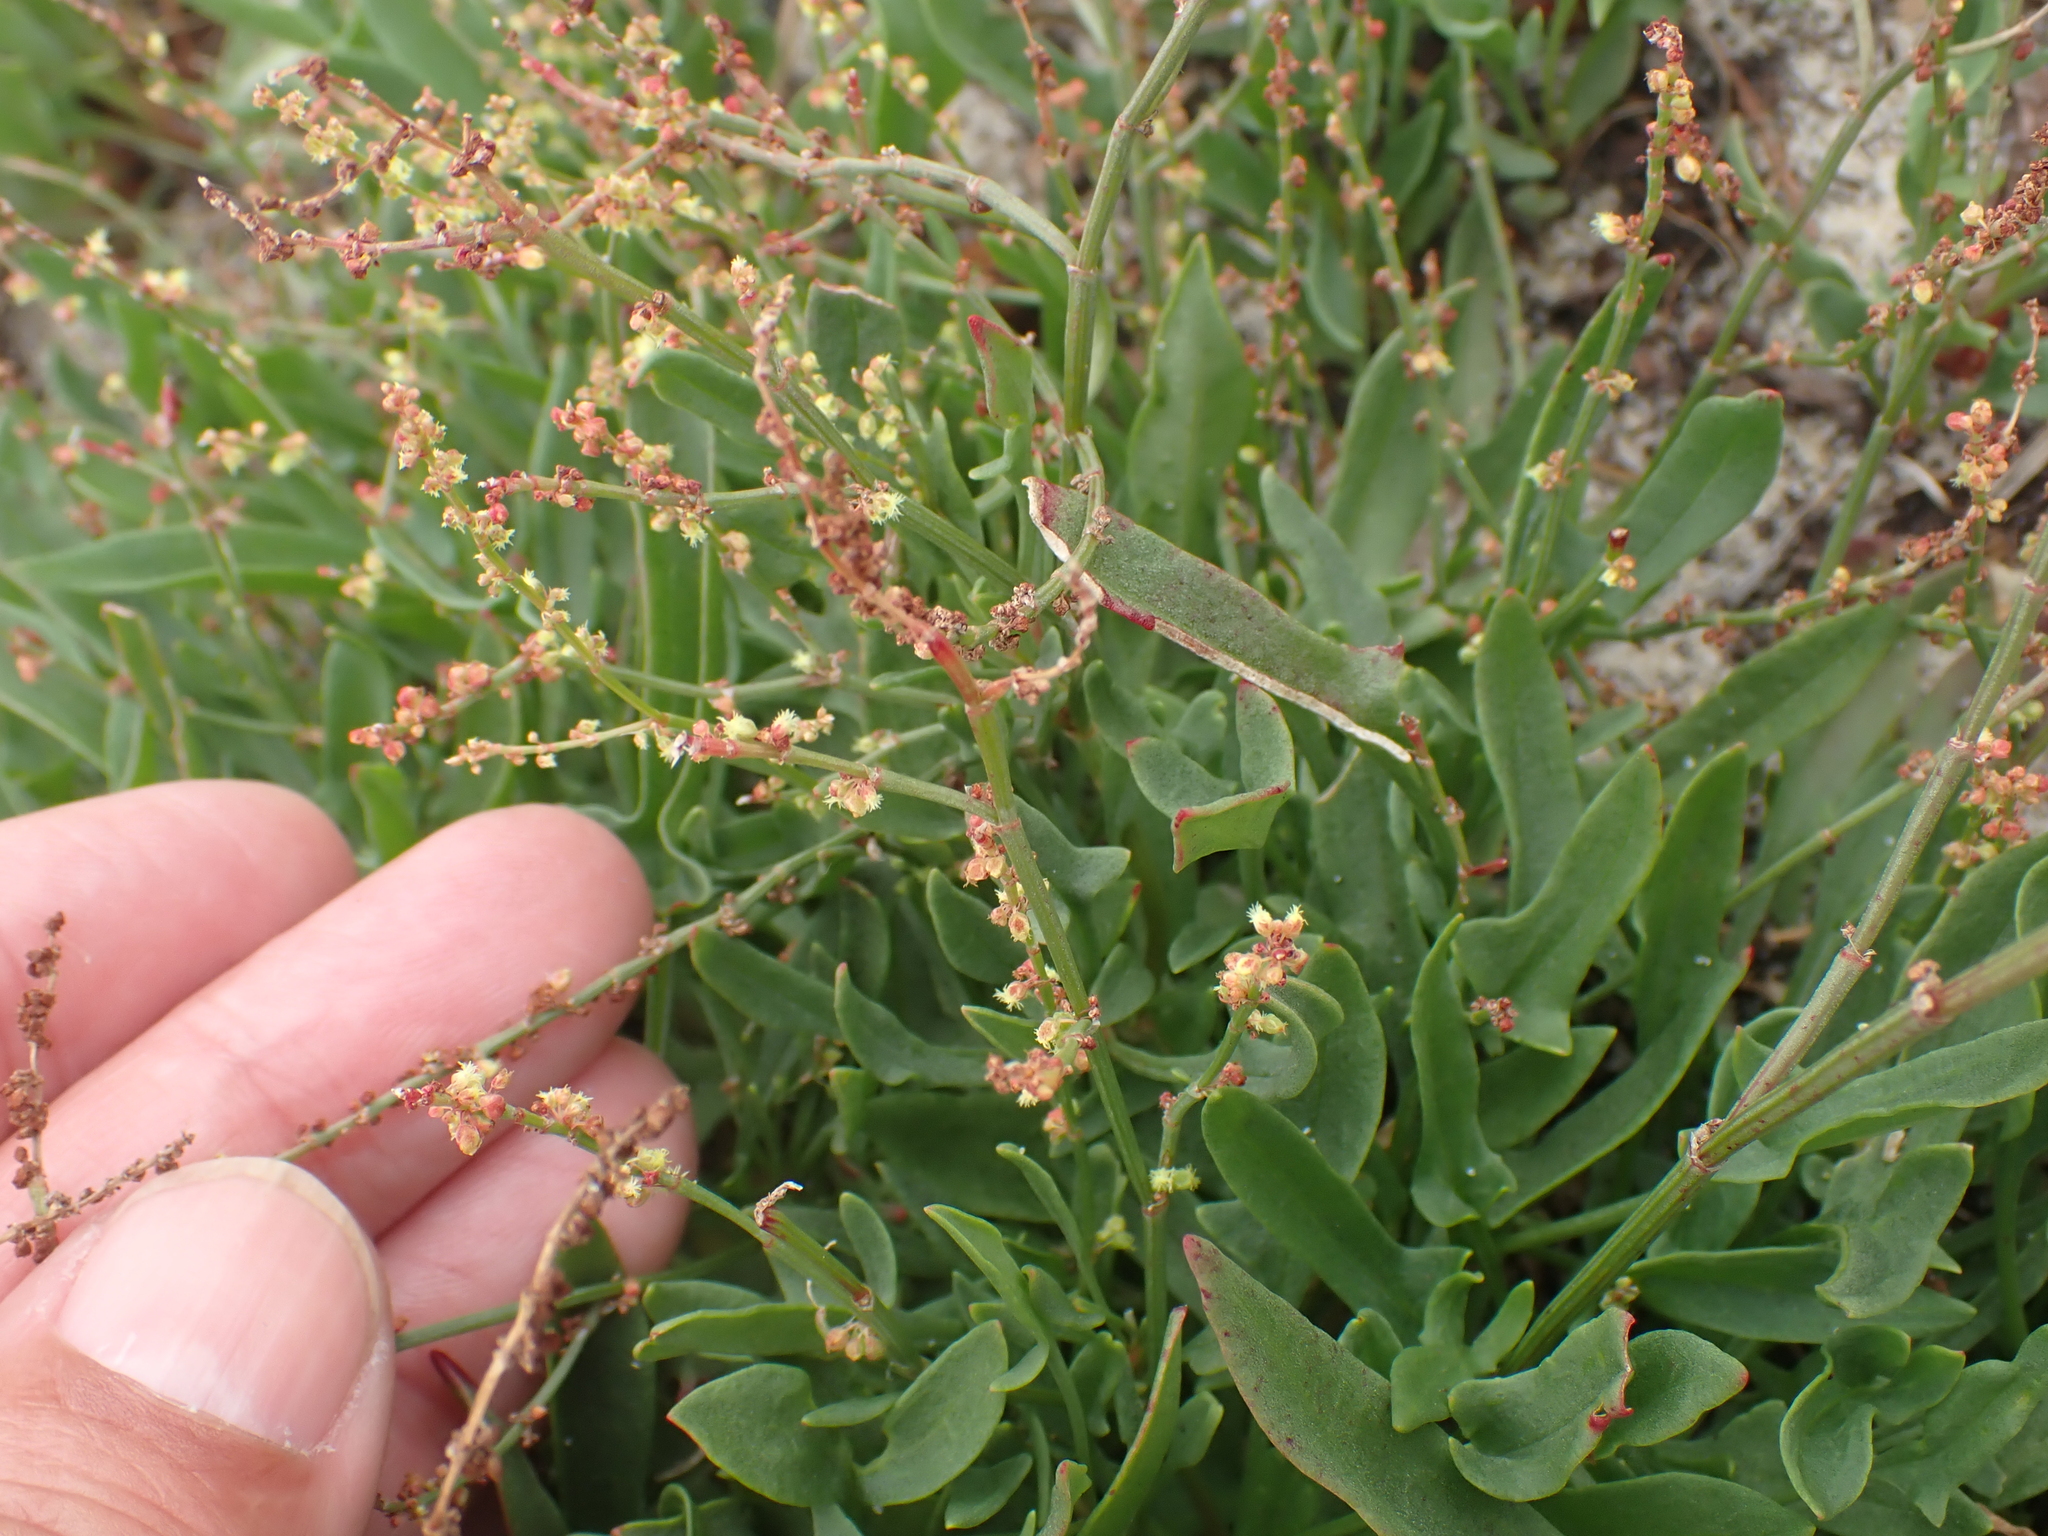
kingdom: Plantae
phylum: Tracheophyta
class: Magnoliopsida
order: Caryophyllales
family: Polygonaceae
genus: Rumex
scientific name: Rumex acetosella
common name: Common sheep sorrel
